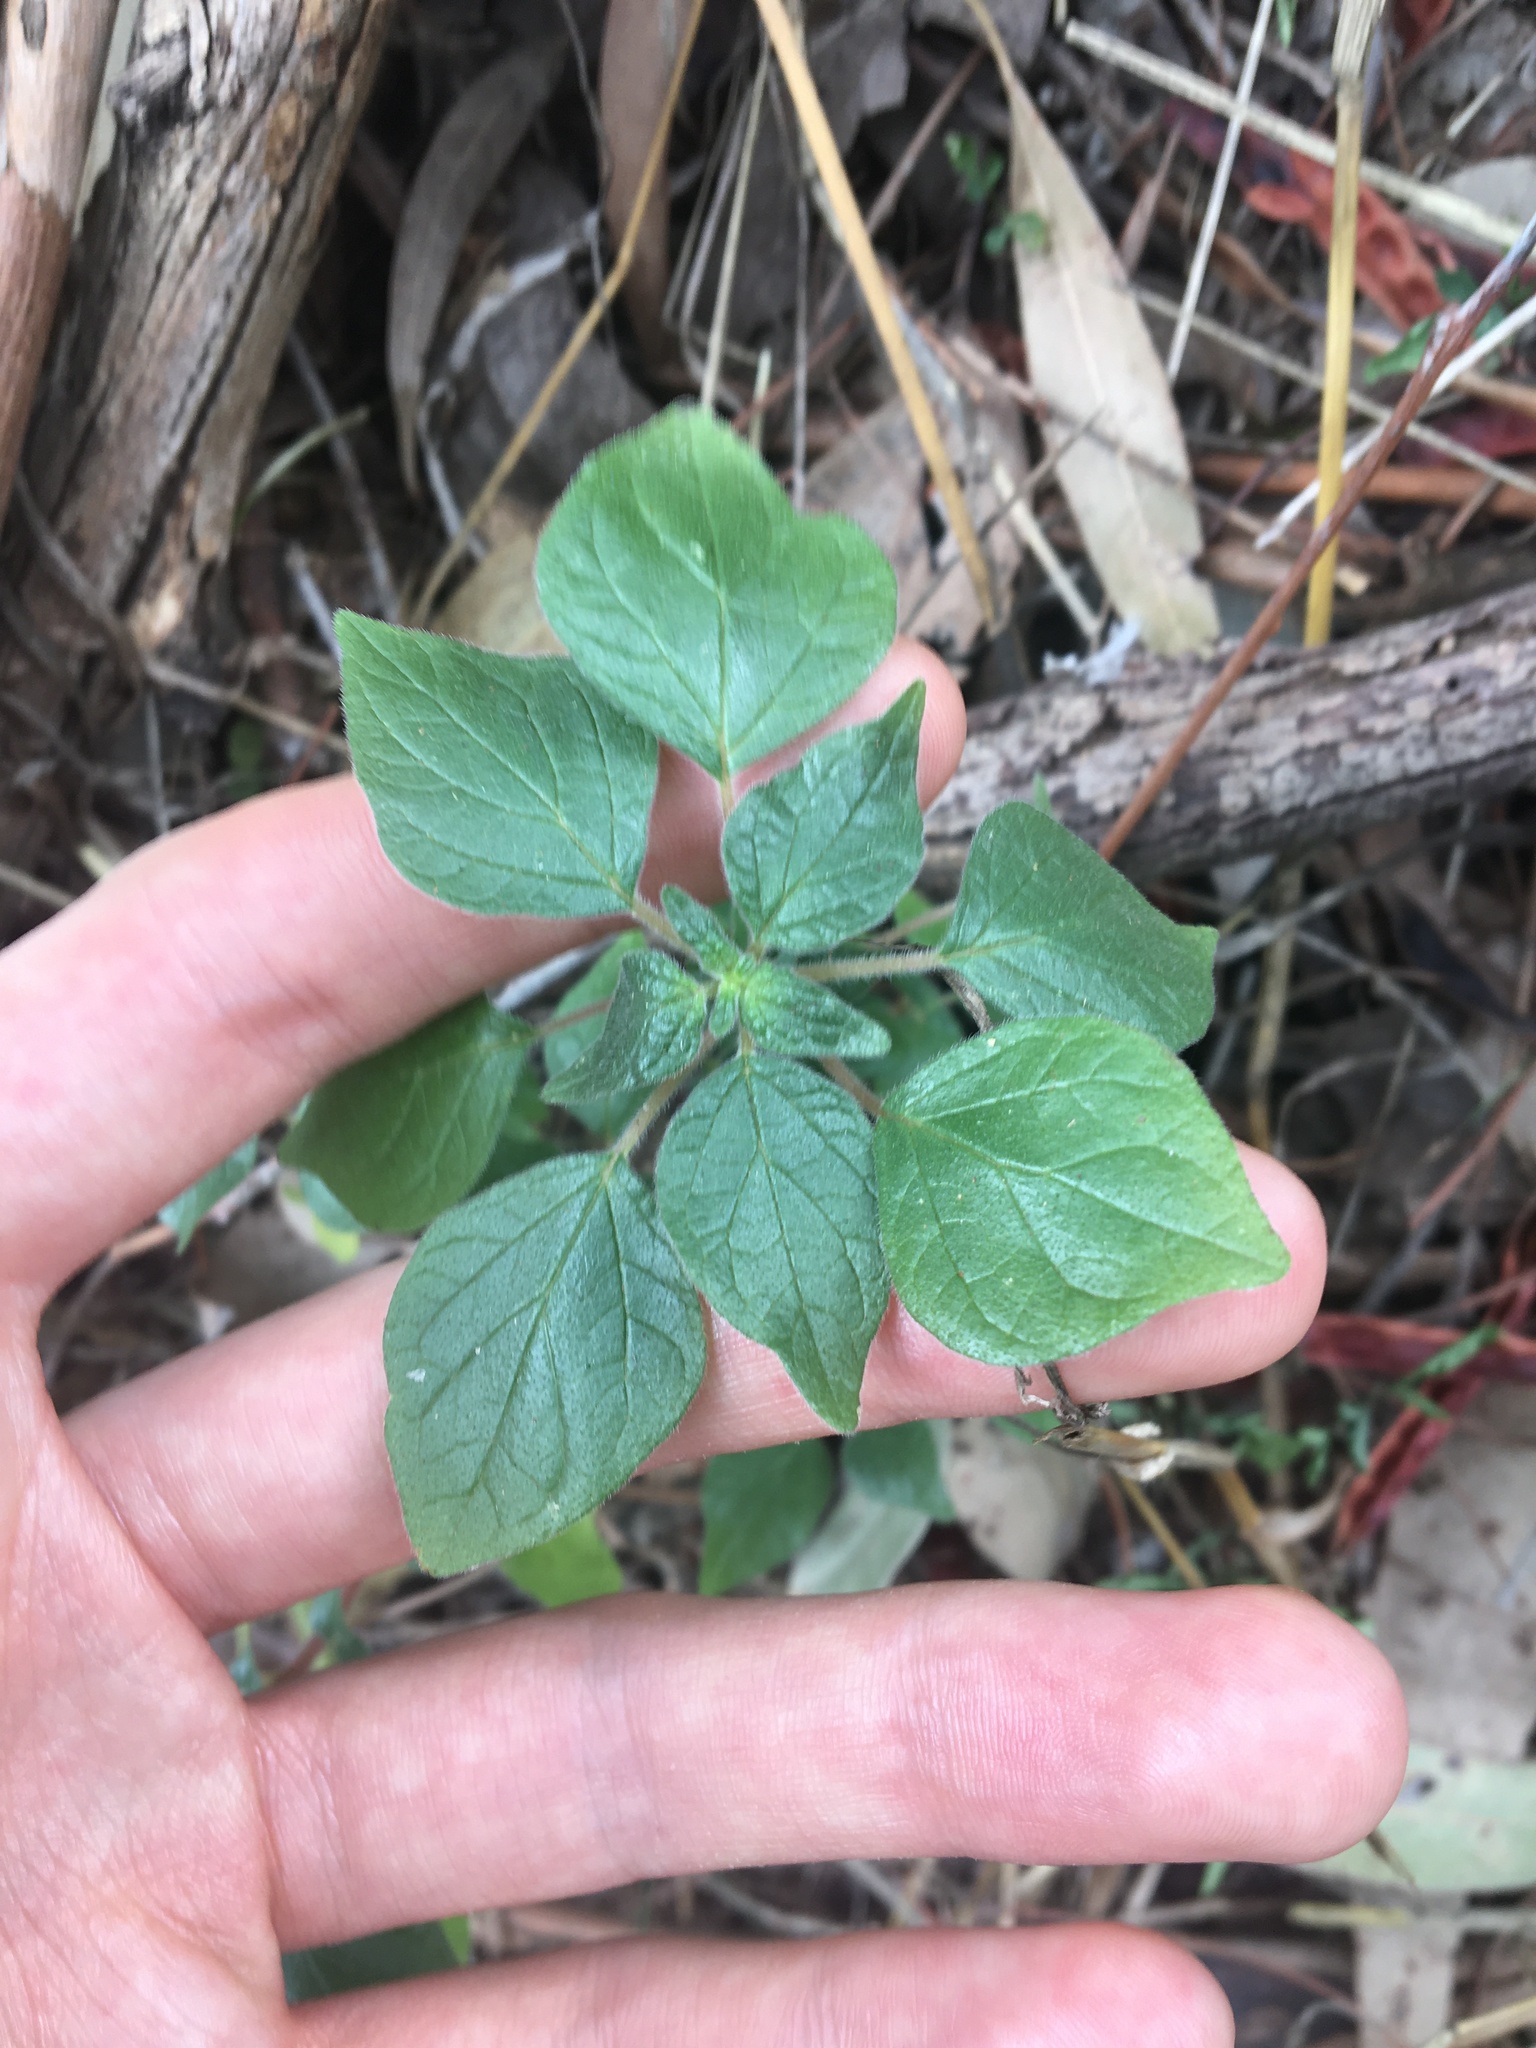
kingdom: Plantae
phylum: Tracheophyta
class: Magnoliopsida
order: Rosales
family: Urticaceae
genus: Parietaria
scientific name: Parietaria judaica
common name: Pellitory-of-the-wall
